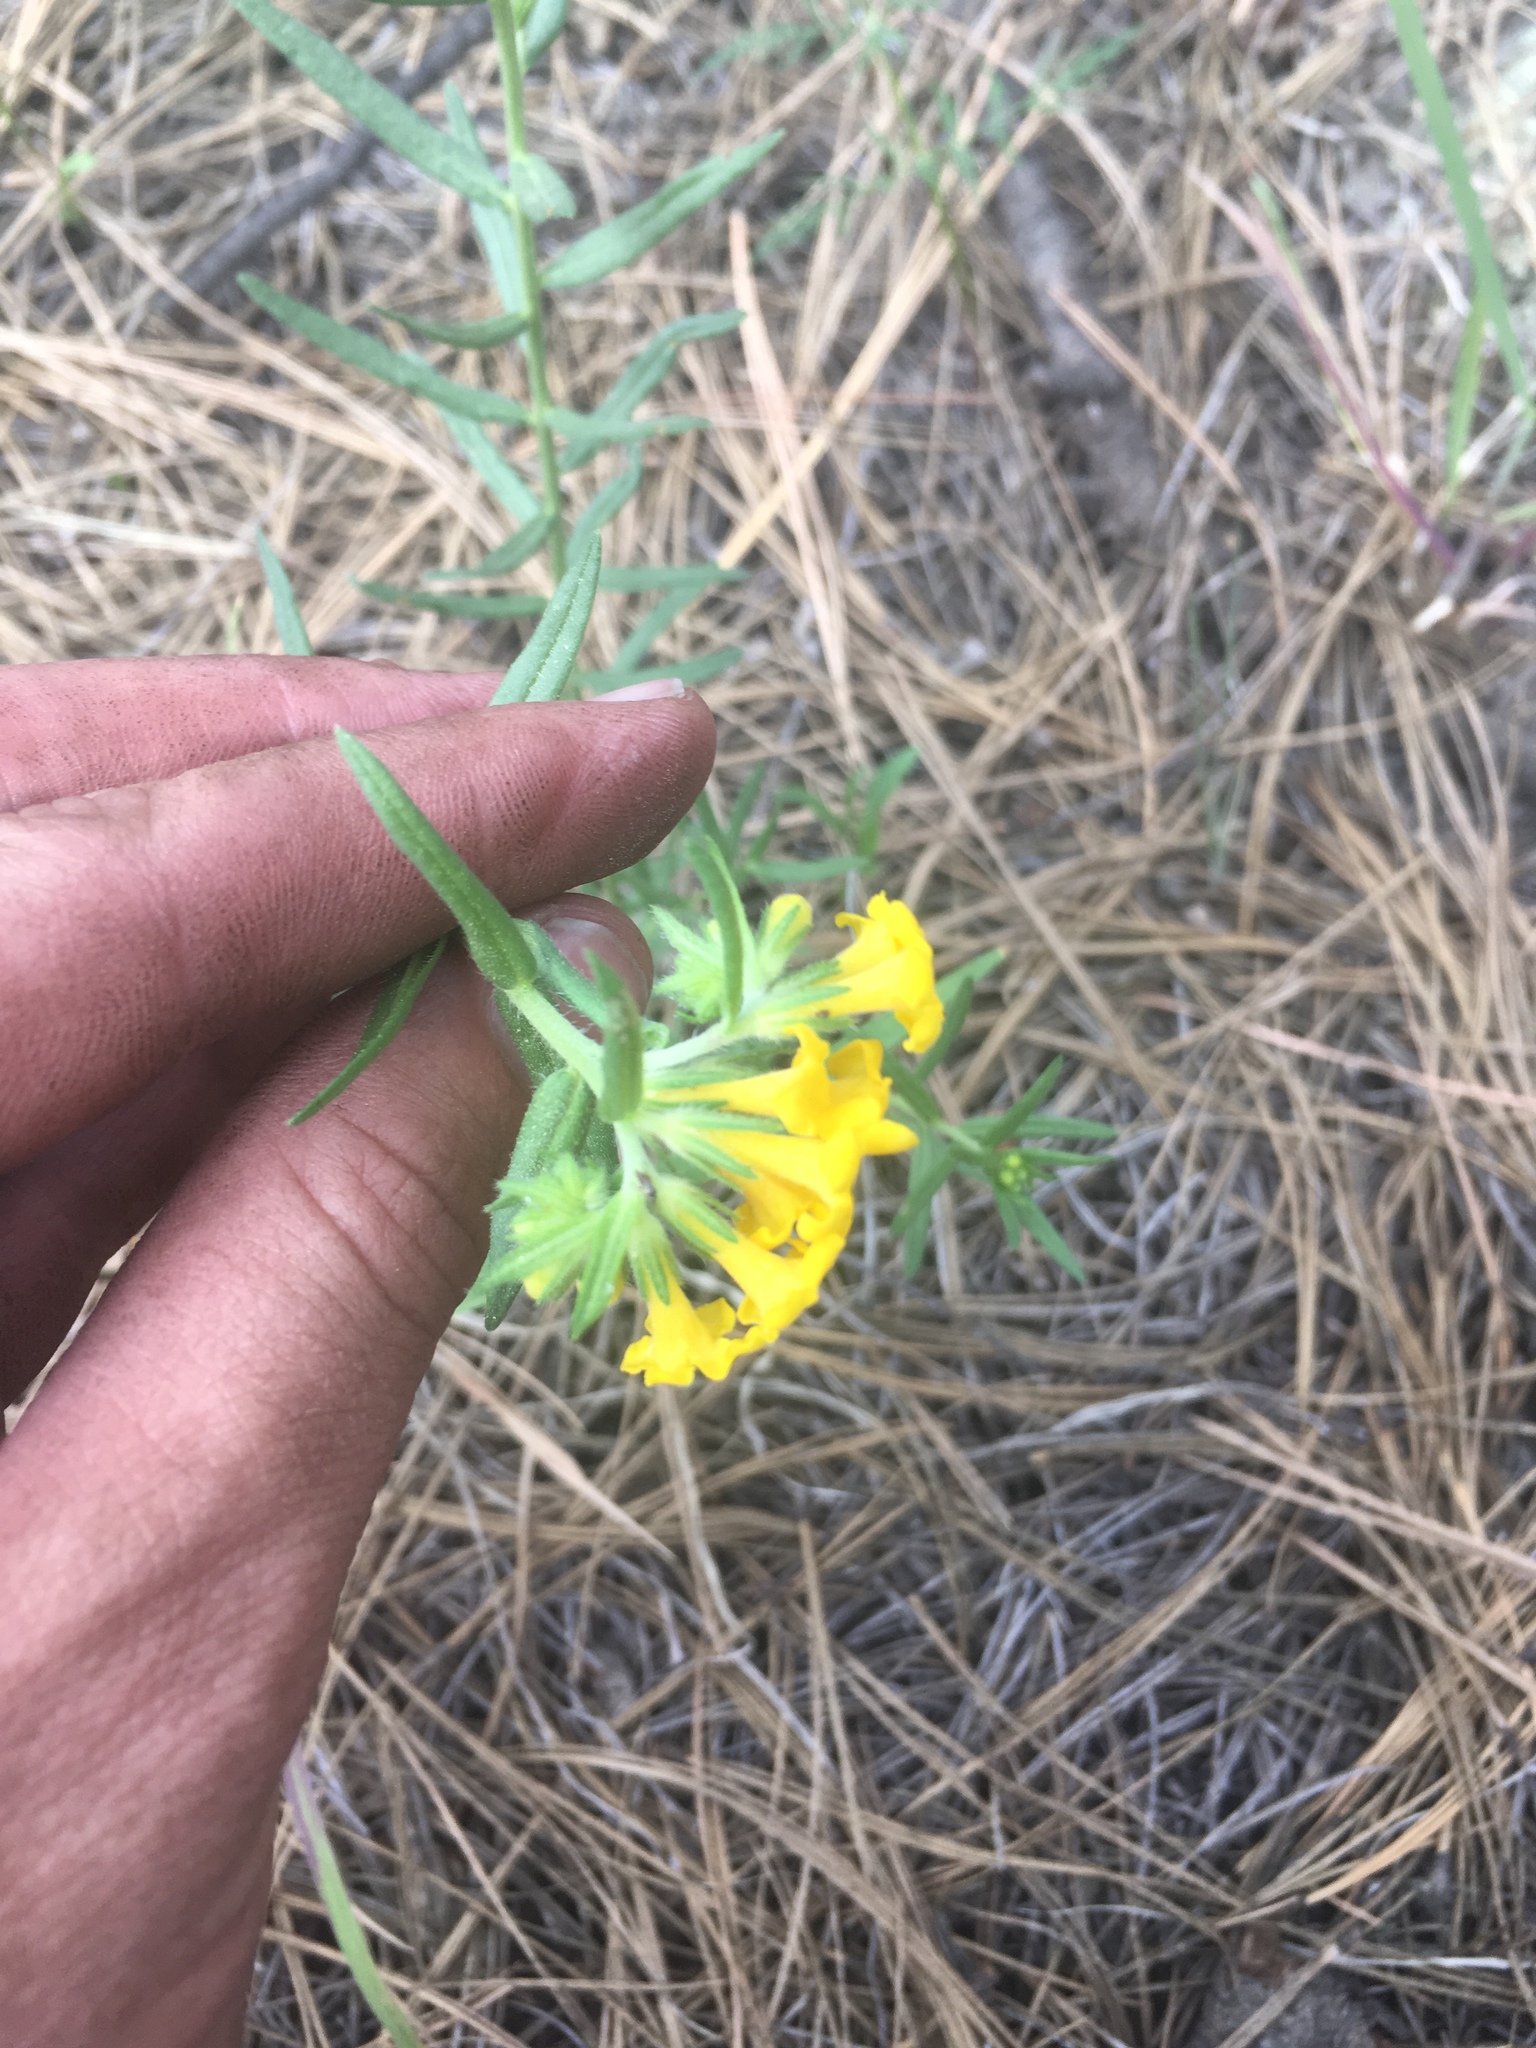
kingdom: Plantae
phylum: Tracheophyta
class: Magnoliopsida
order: Boraginales
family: Boraginaceae
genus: Lithospermum
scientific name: Lithospermum multiflorum
